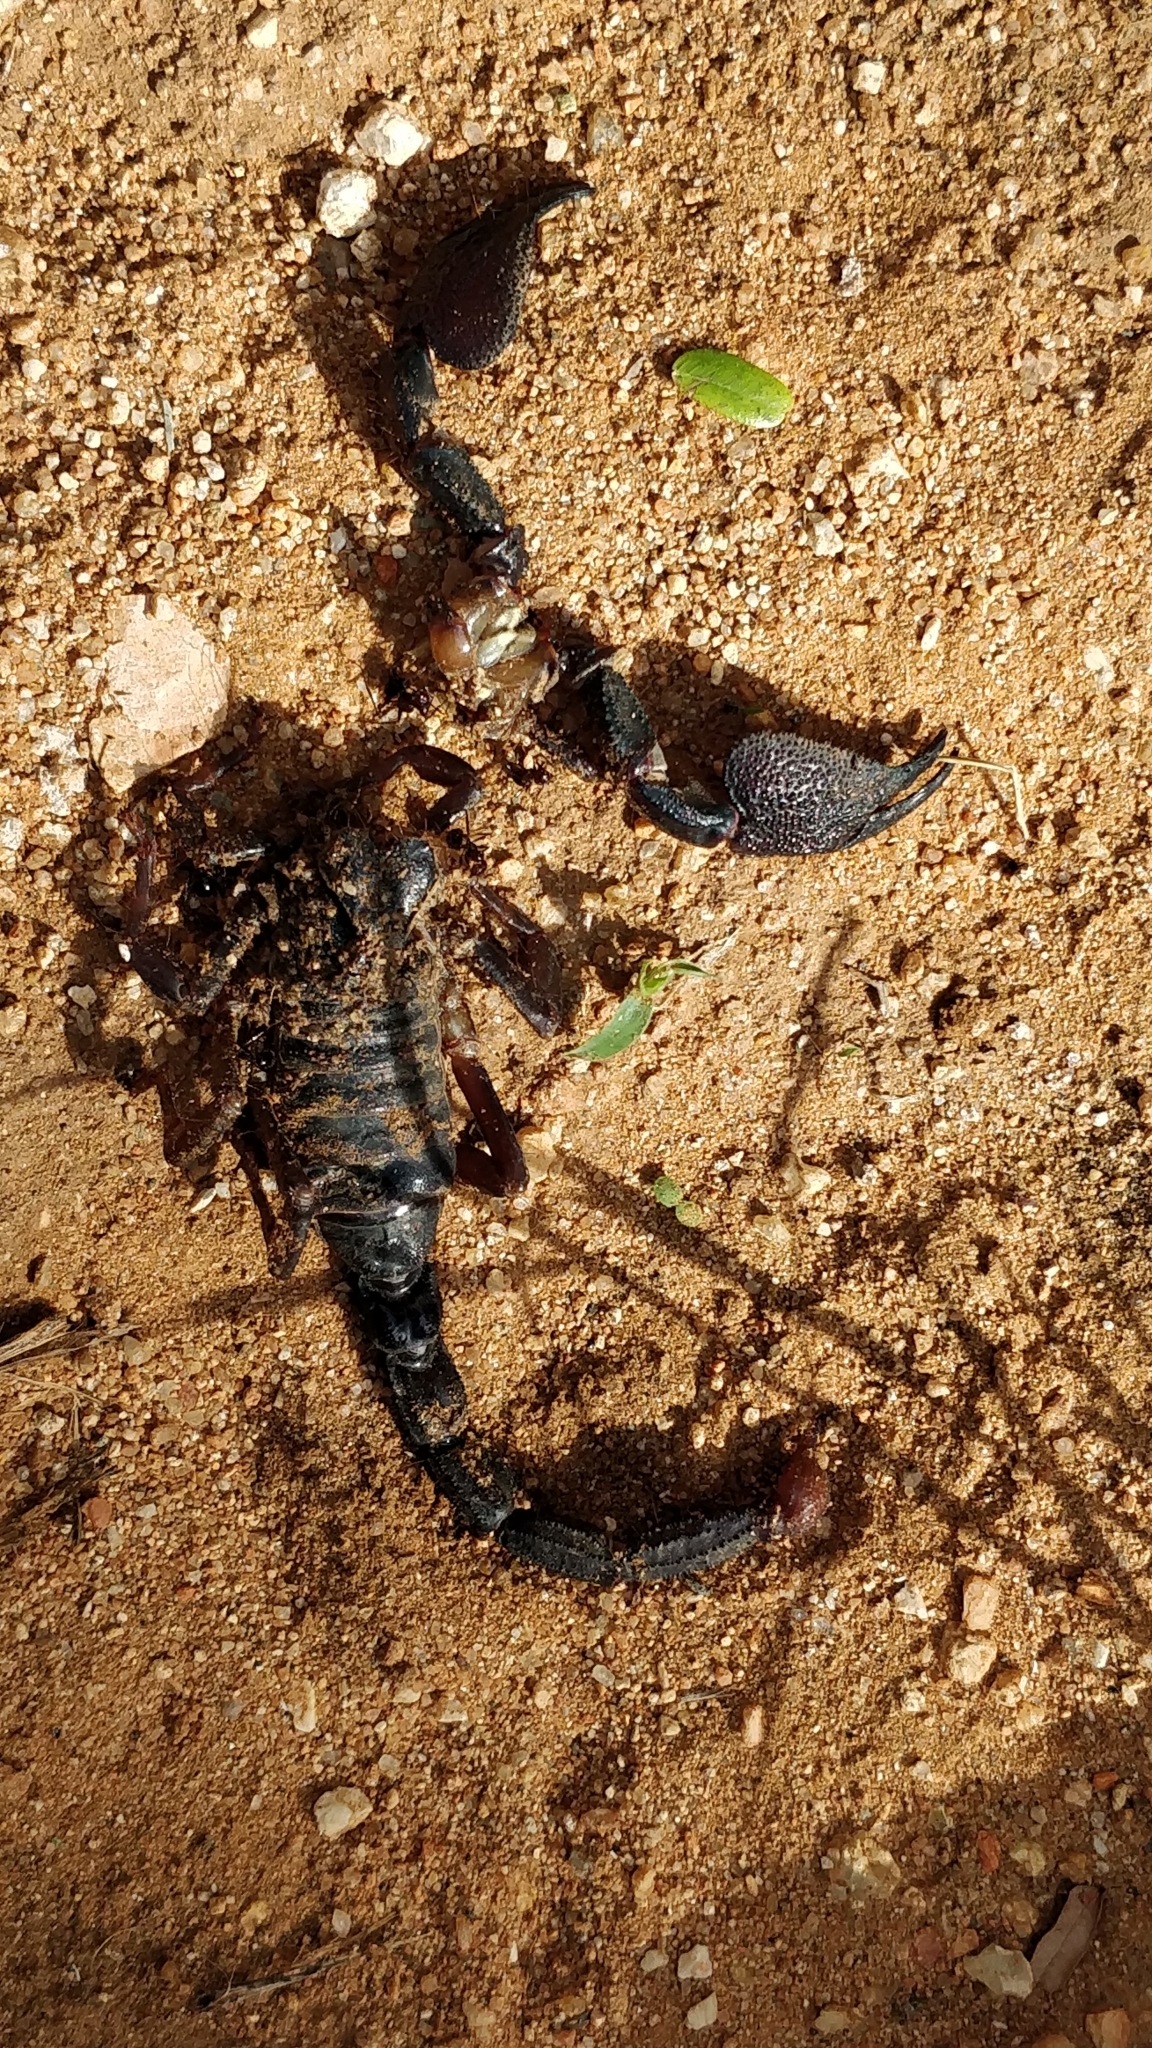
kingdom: Animalia
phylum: Arthropoda
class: Arachnida
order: Scorpiones
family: Scorpionidae
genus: Gigantometrus
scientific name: Gigantometrus swammerdami
